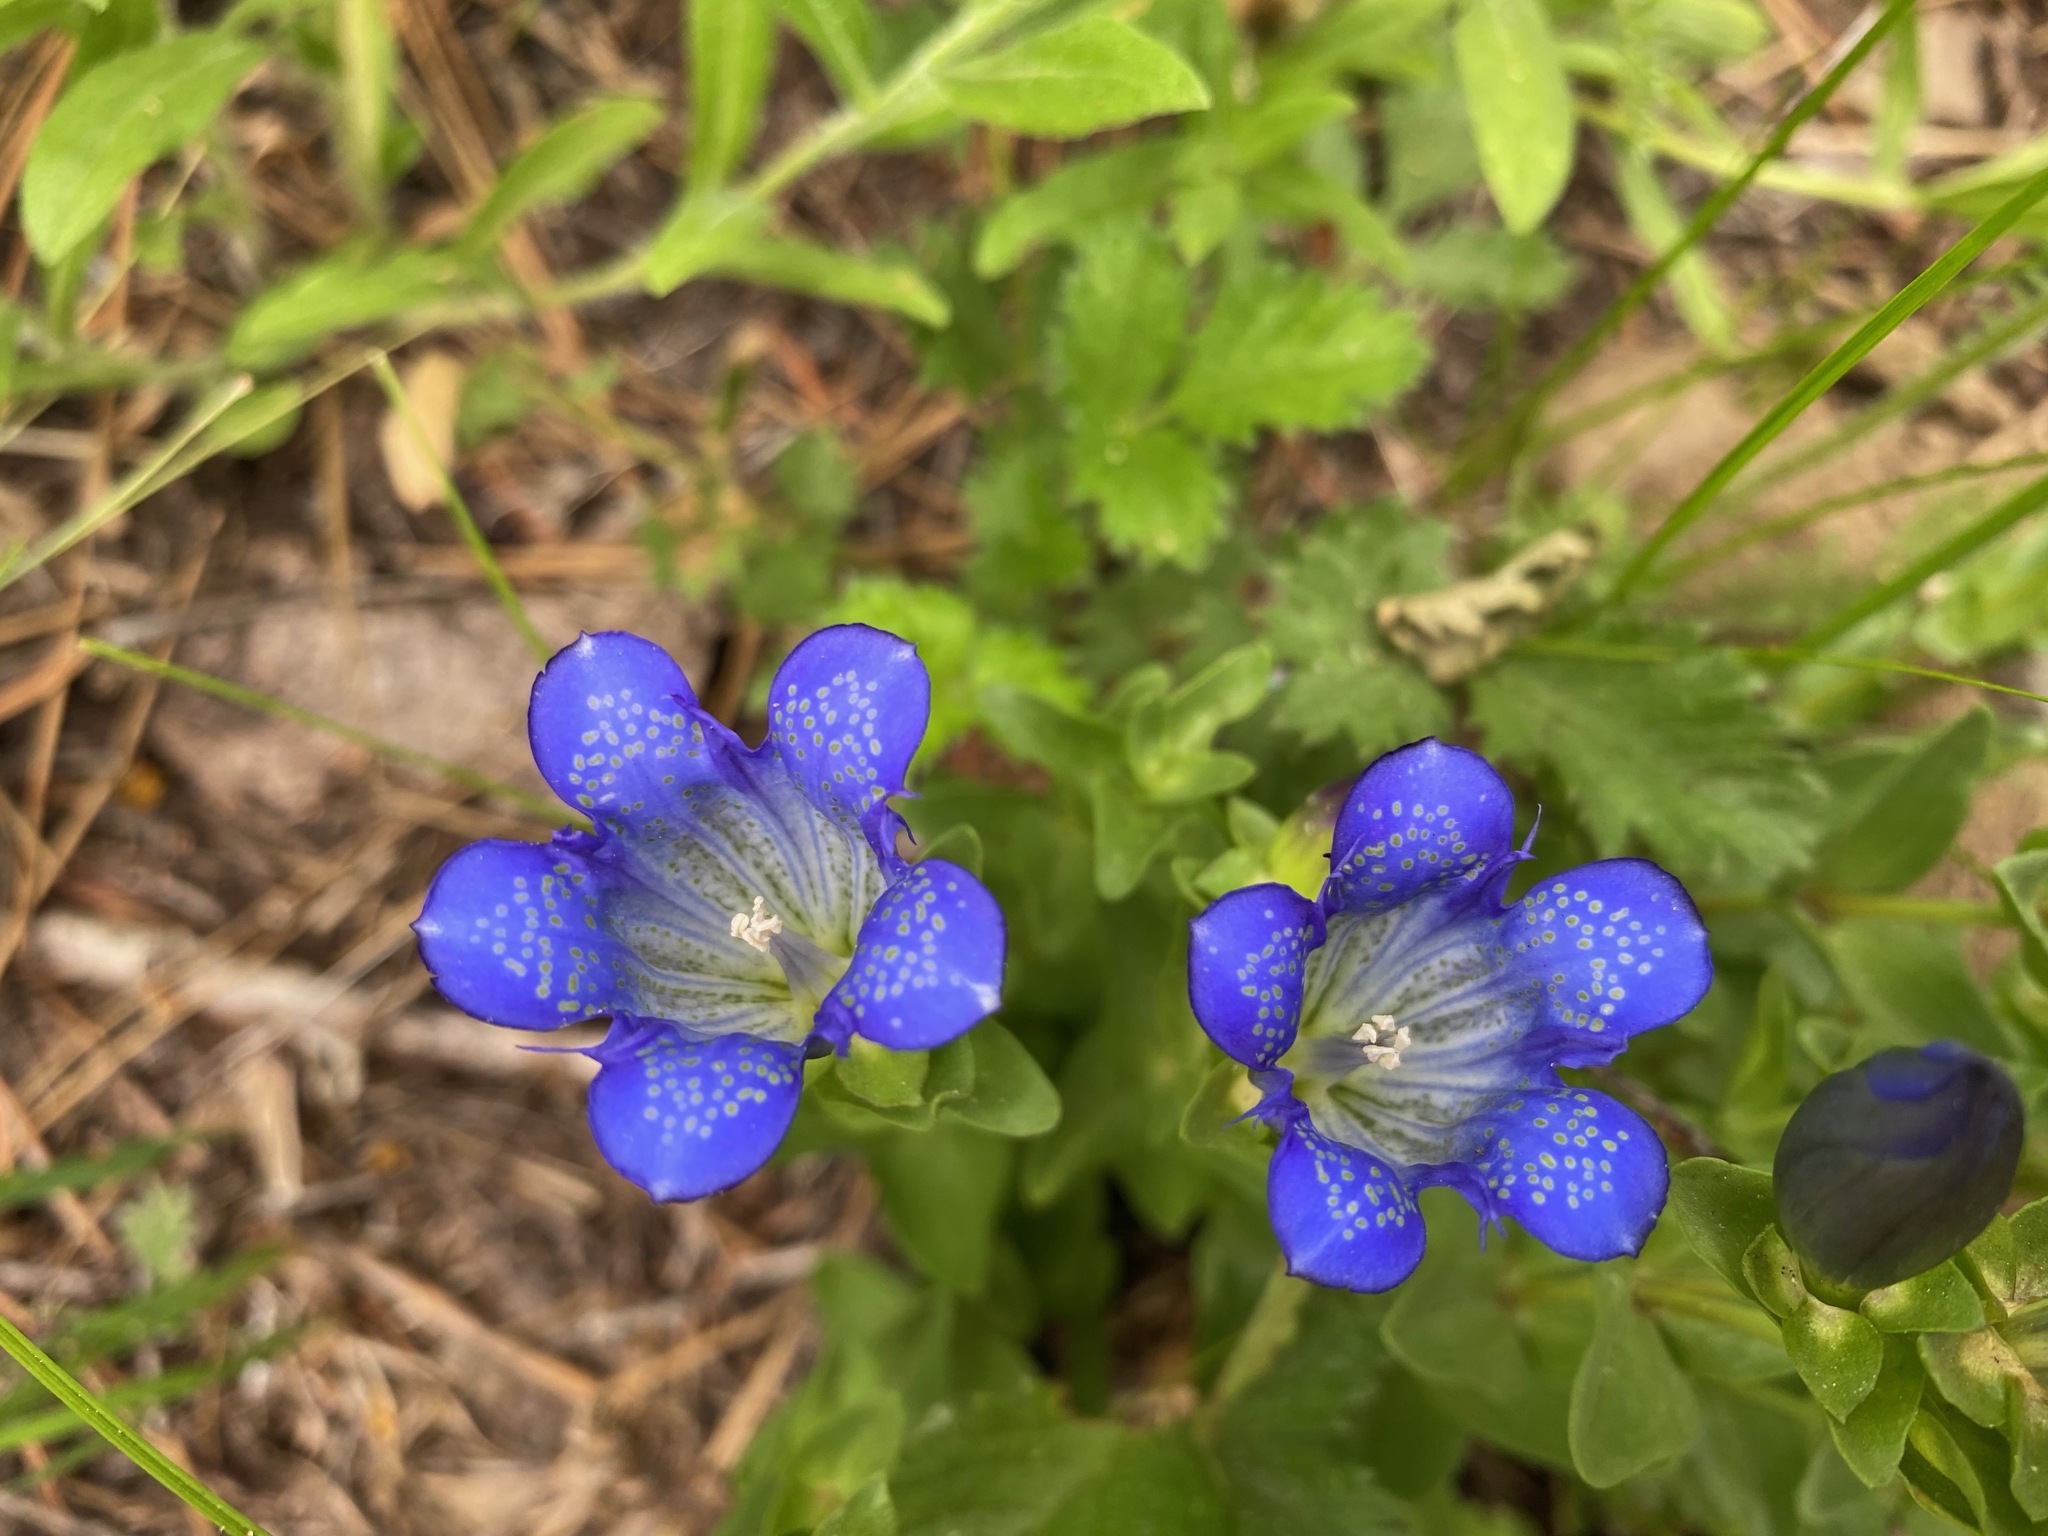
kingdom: Plantae
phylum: Tracheophyta
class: Magnoliopsida
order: Gentianales
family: Gentianaceae
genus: Gentiana
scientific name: Gentiana calycosa
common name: Rainier pleated gentian
